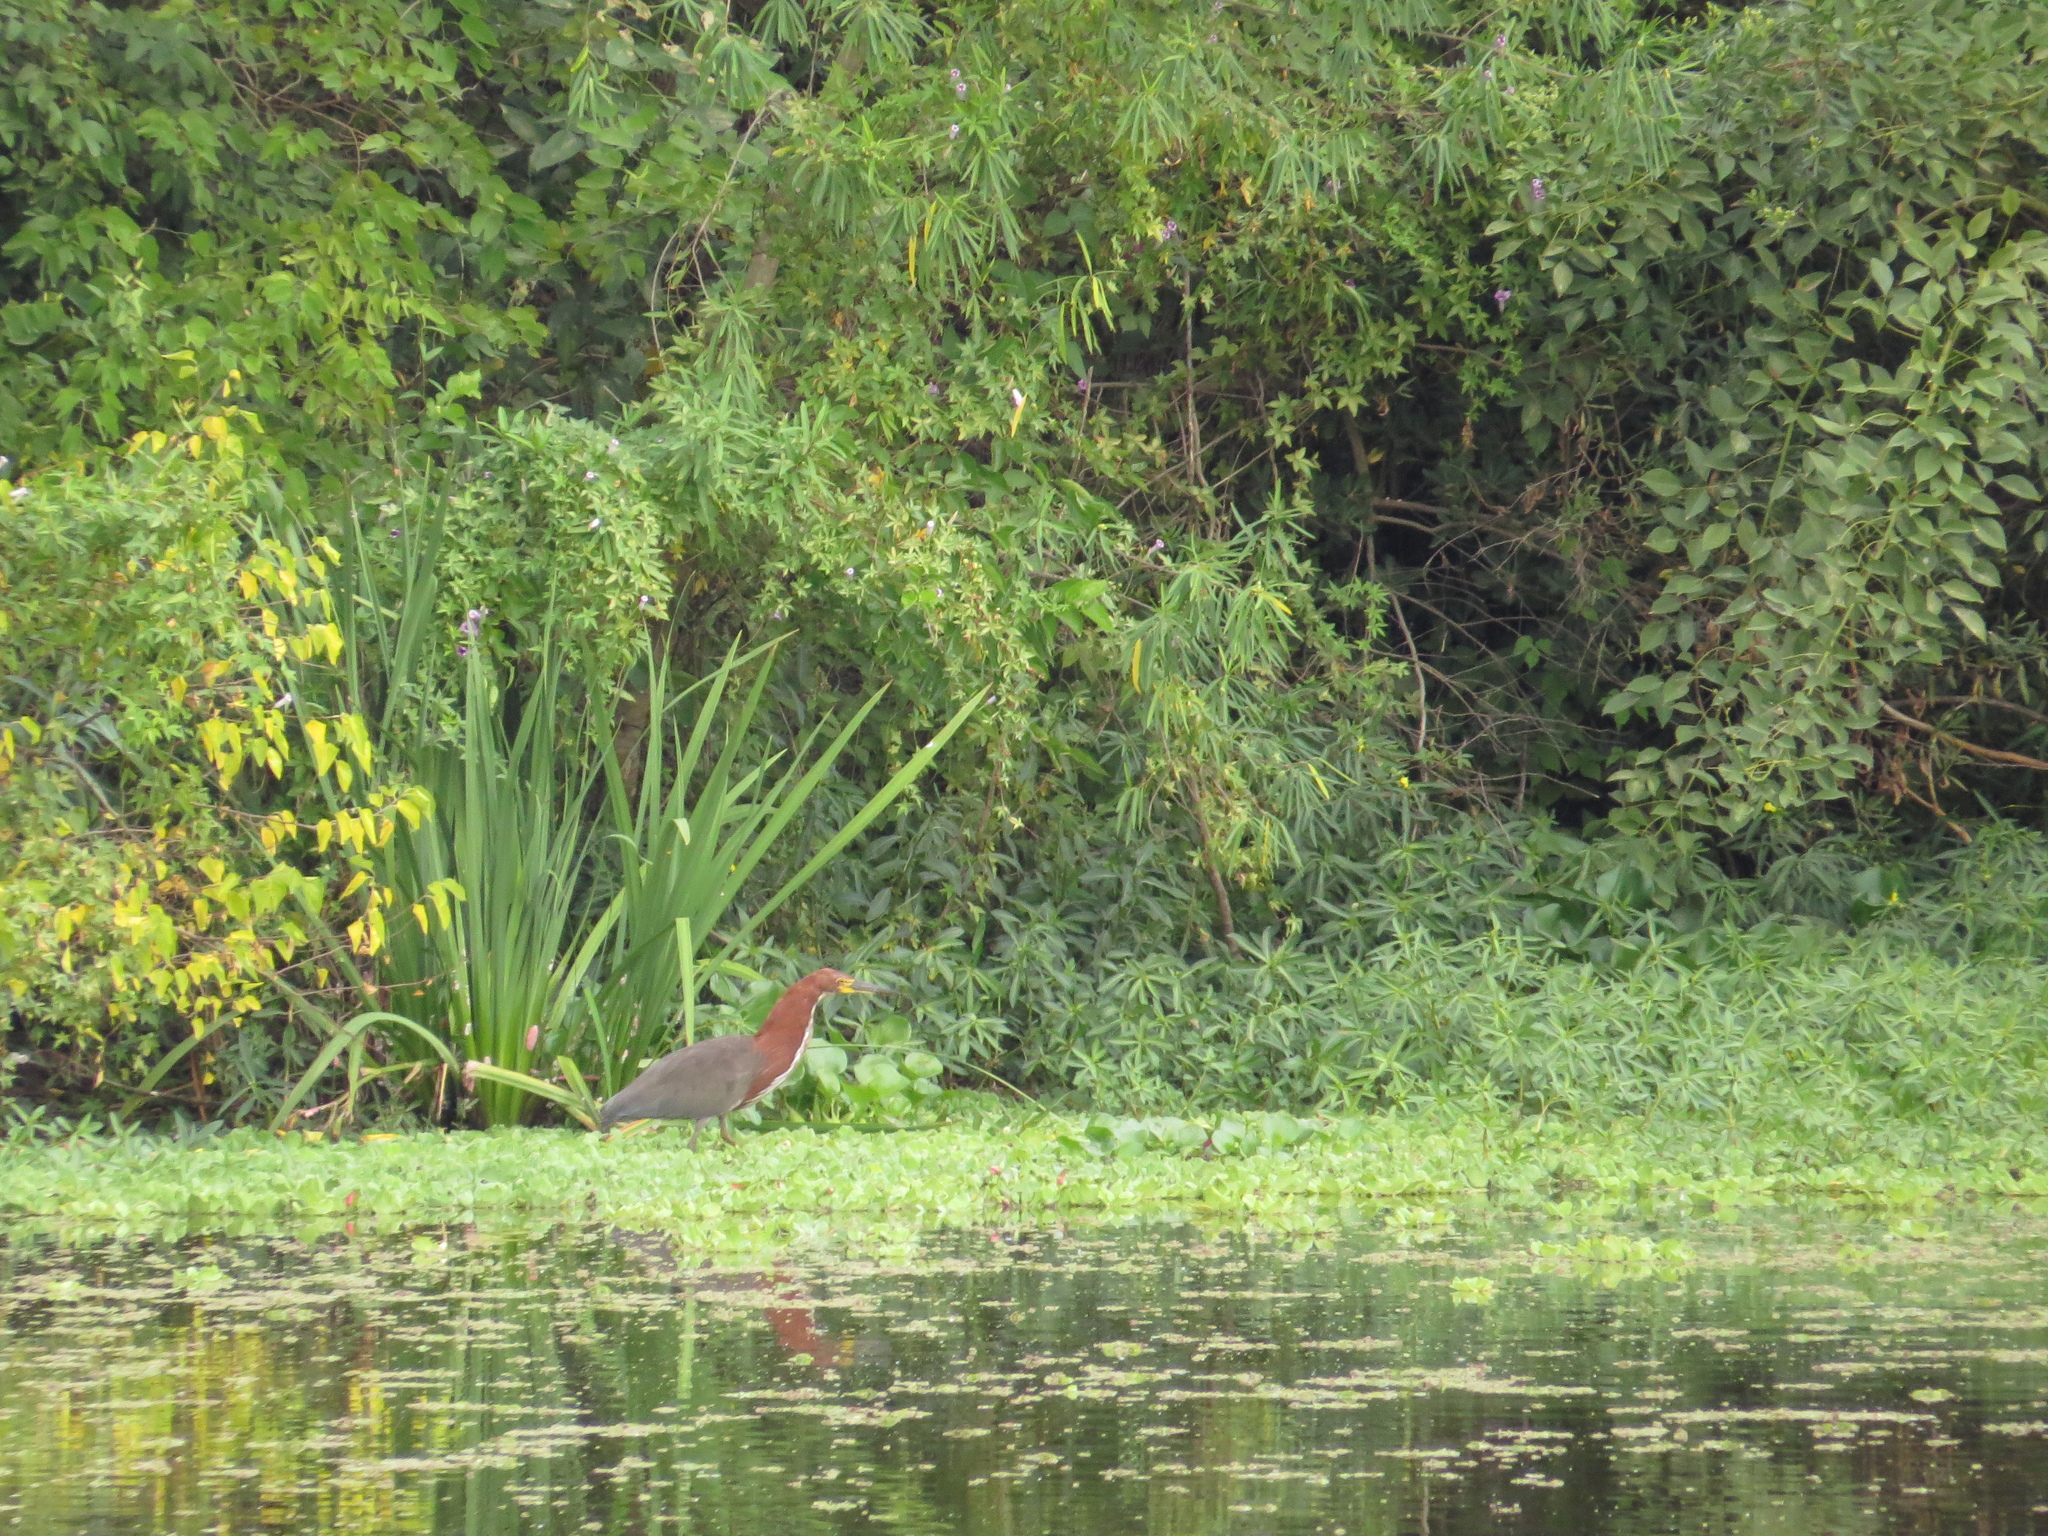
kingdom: Animalia
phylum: Chordata
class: Aves
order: Pelecaniformes
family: Ardeidae
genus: Tigrisoma
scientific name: Tigrisoma lineatum
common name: Rufescent tiger-heron
